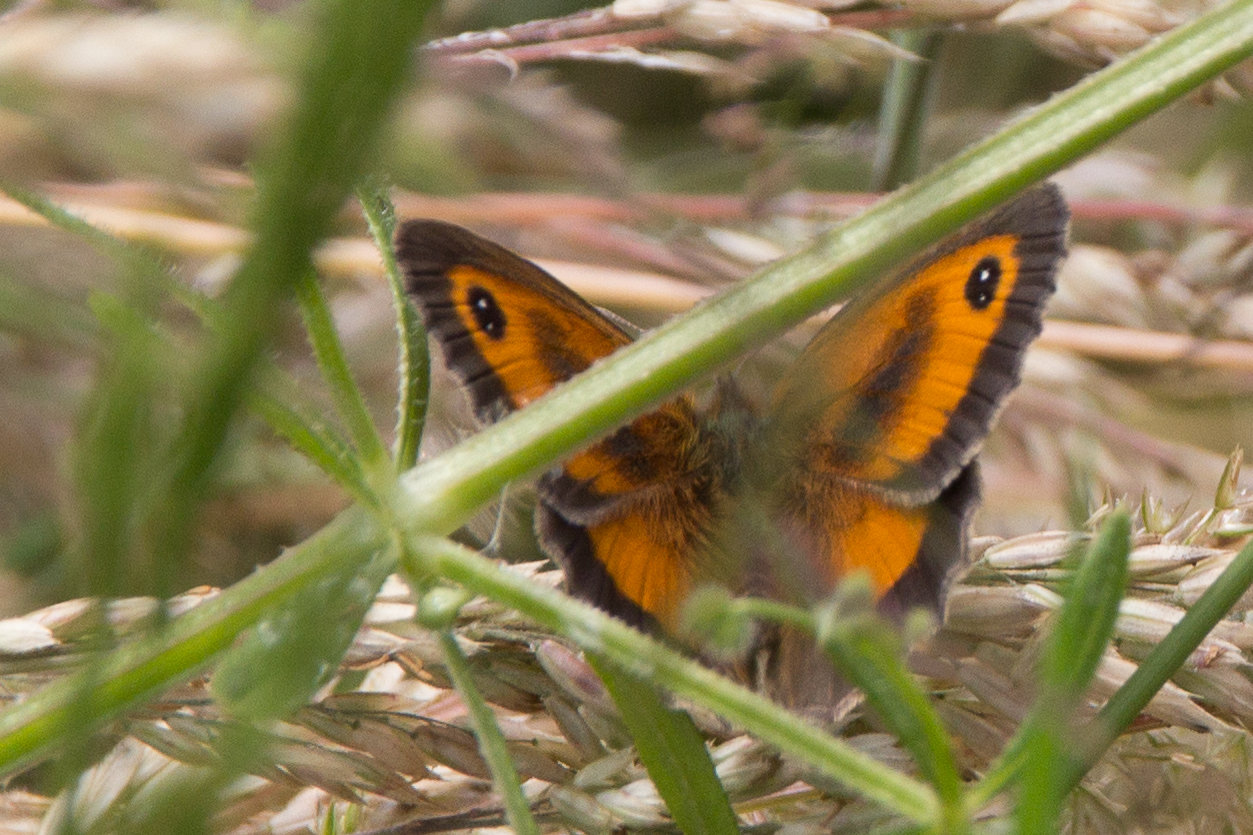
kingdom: Animalia
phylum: Arthropoda
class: Insecta
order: Lepidoptera
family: Nymphalidae
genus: Pyronia
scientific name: Pyronia tithonus
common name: Gatekeeper
